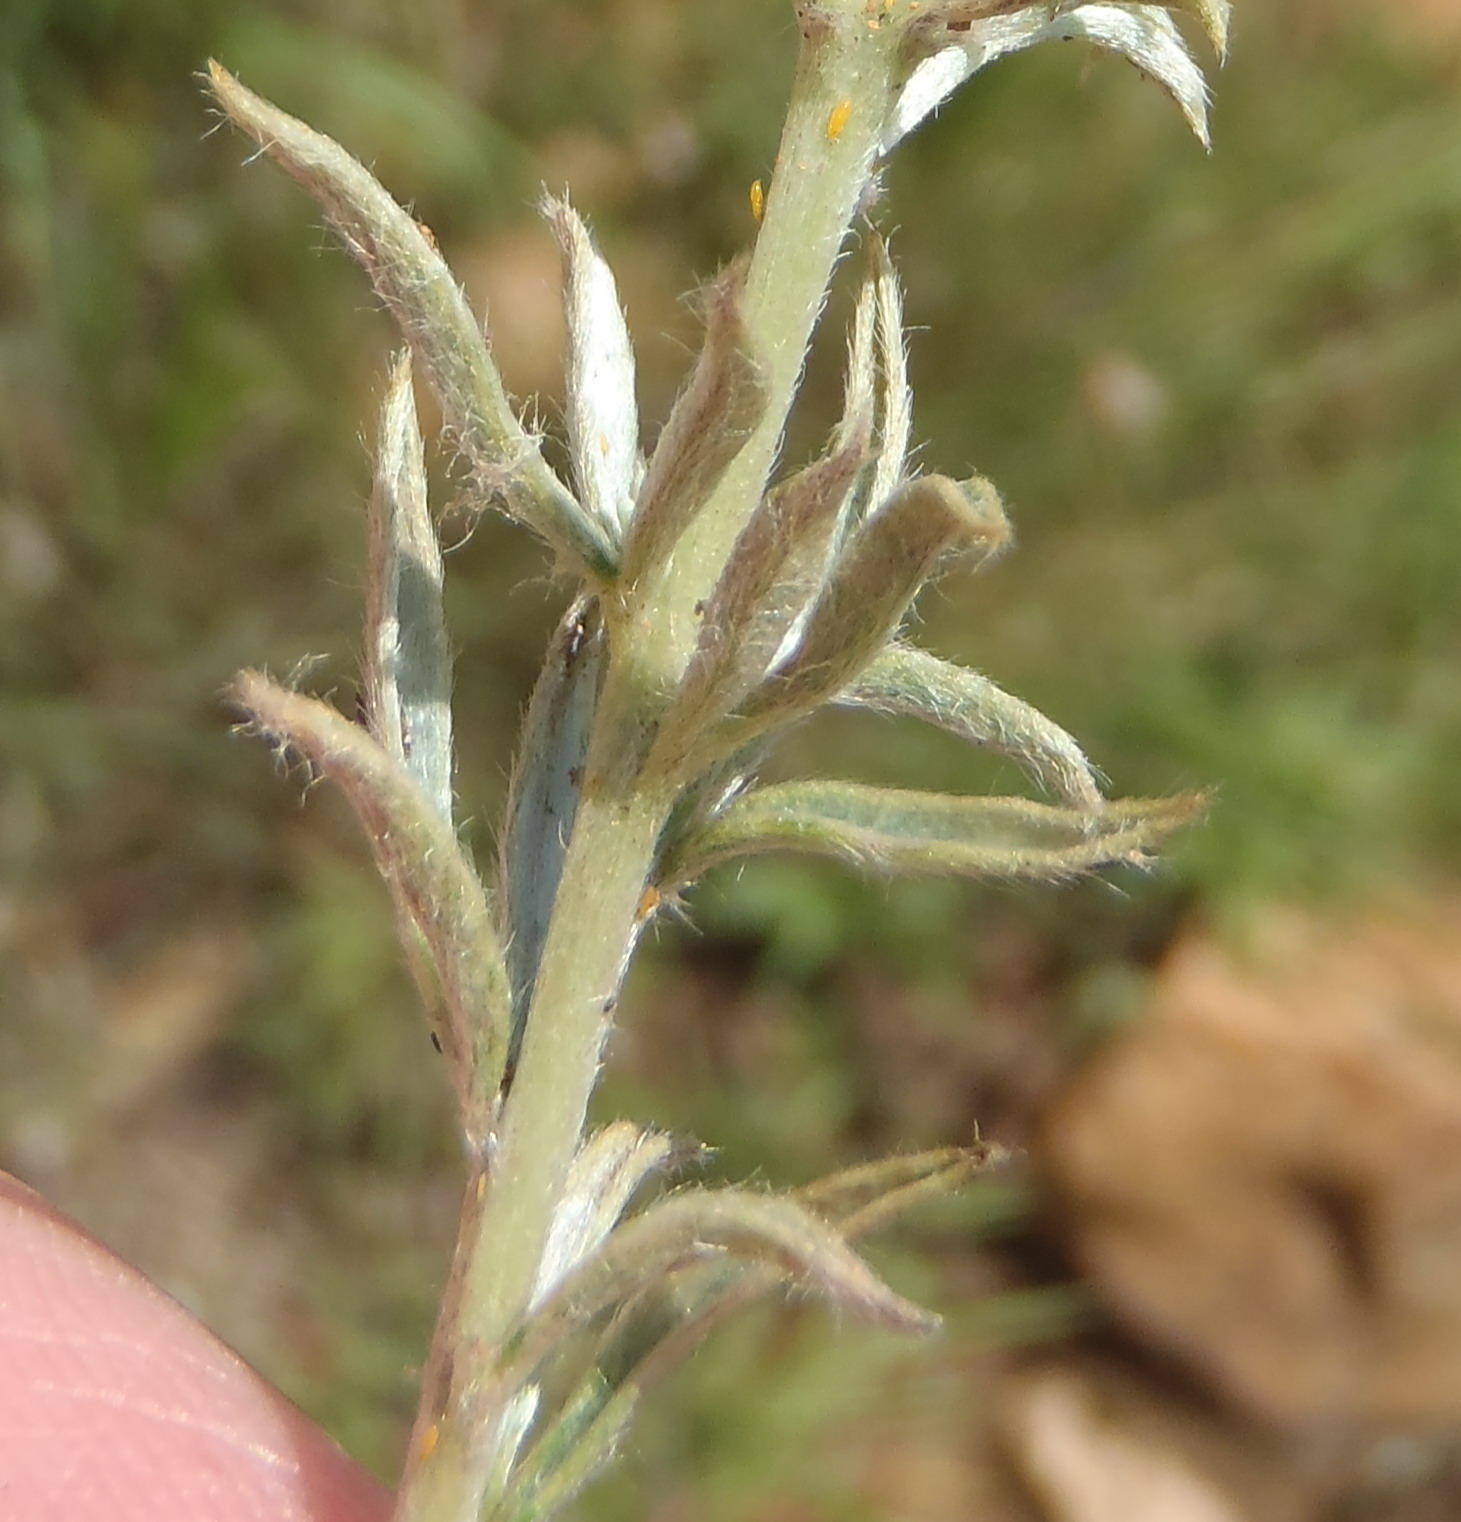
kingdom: Plantae
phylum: Tracheophyta
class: Magnoliopsida
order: Fabales
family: Fabaceae
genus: Pearsonia
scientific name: Pearsonia sessilifolia
